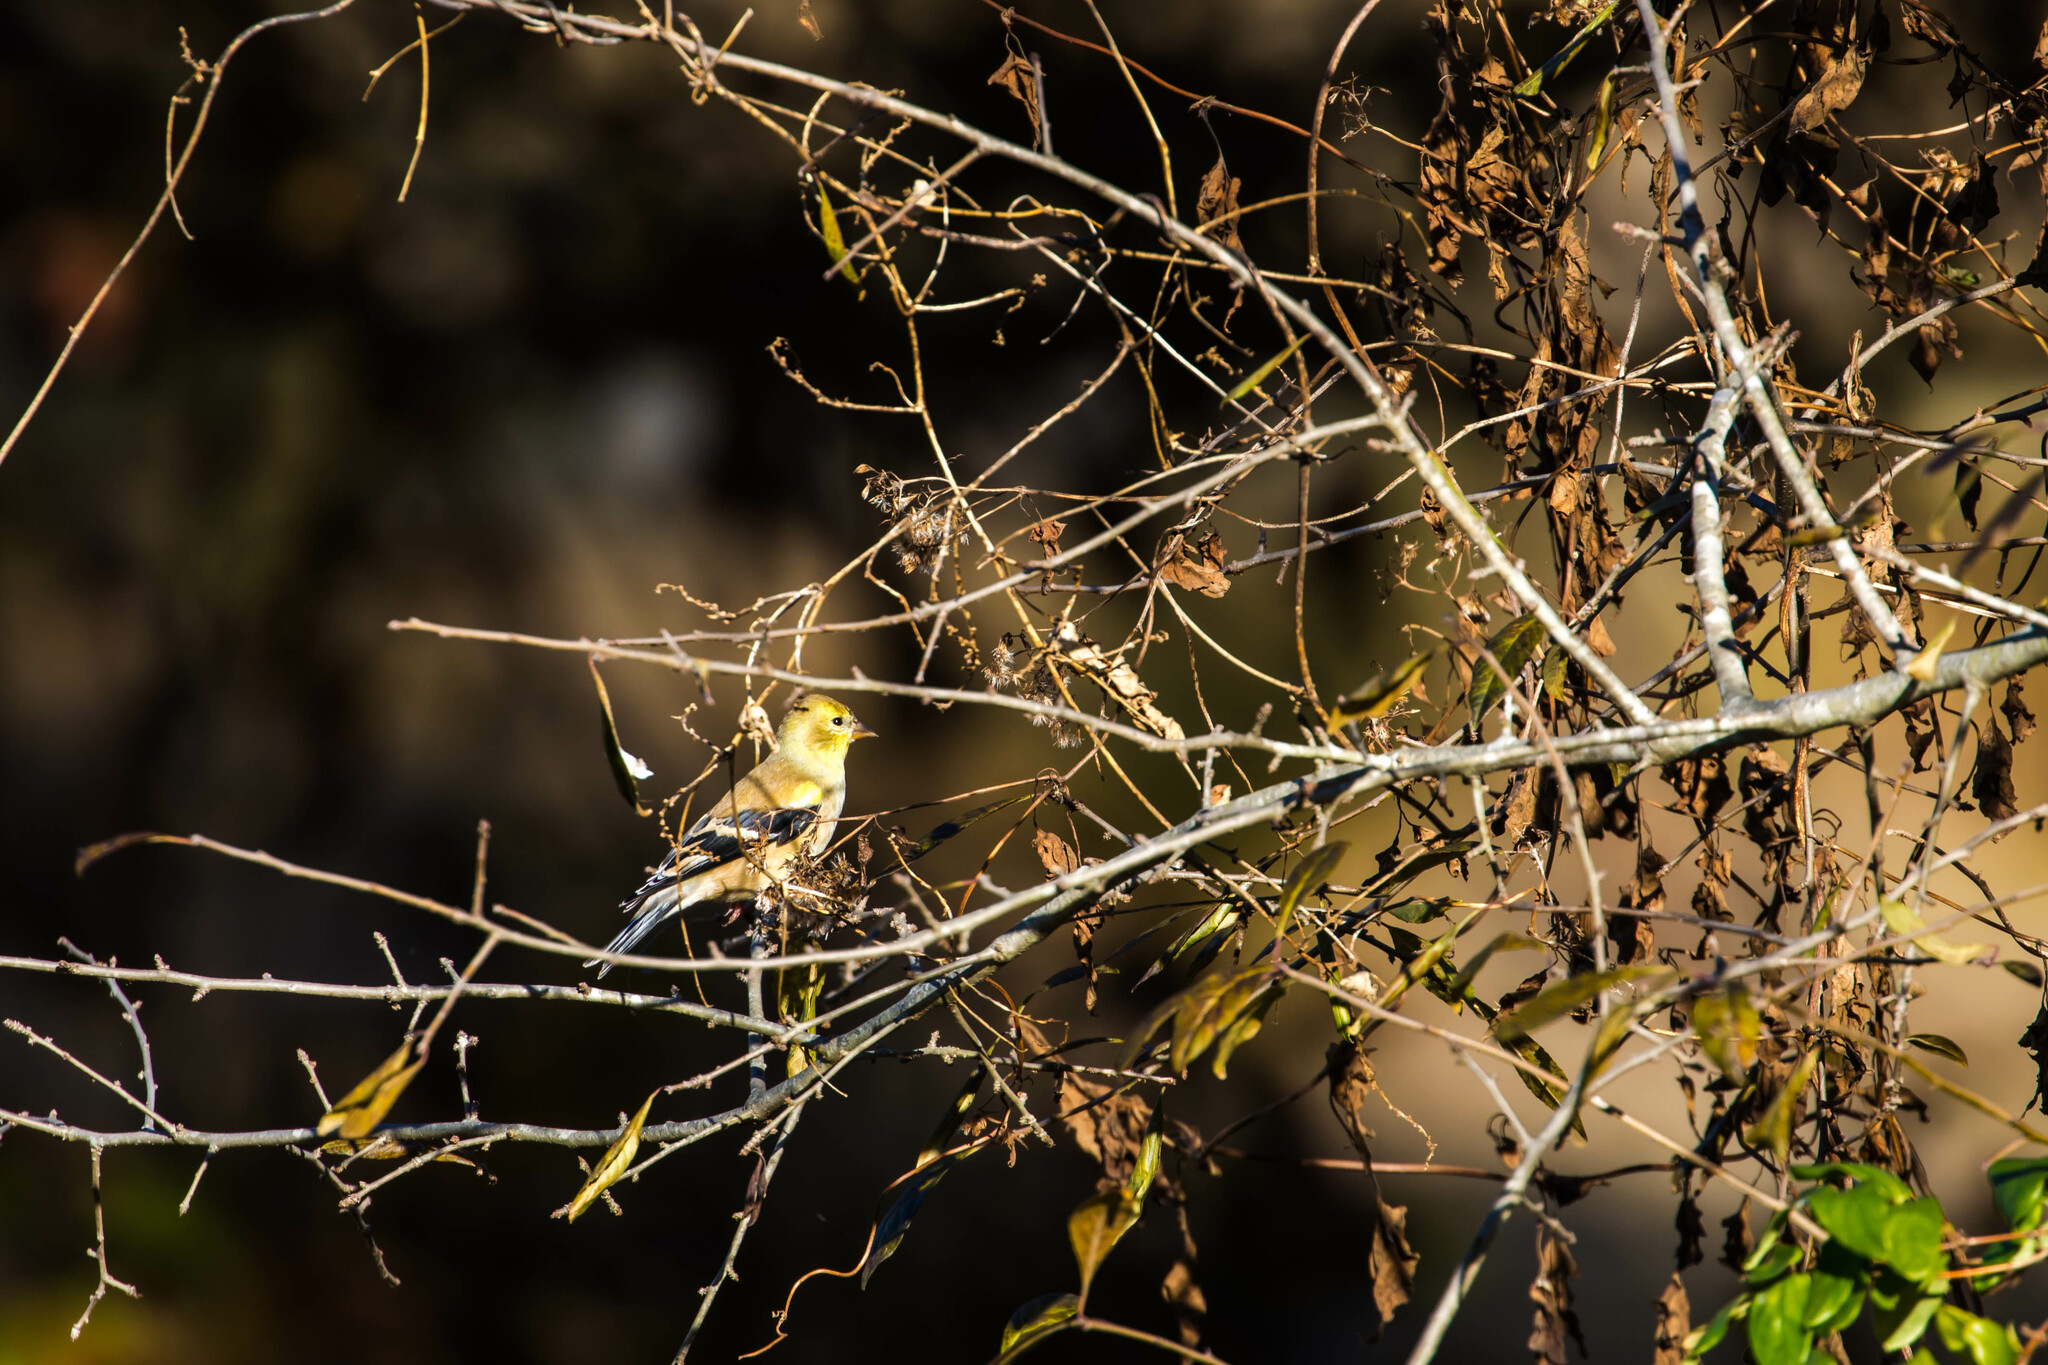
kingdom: Animalia
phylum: Chordata
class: Aves
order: Passeriformes
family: Fringillidae
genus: Spinus
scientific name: Spinus tristis
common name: American goldfinch
